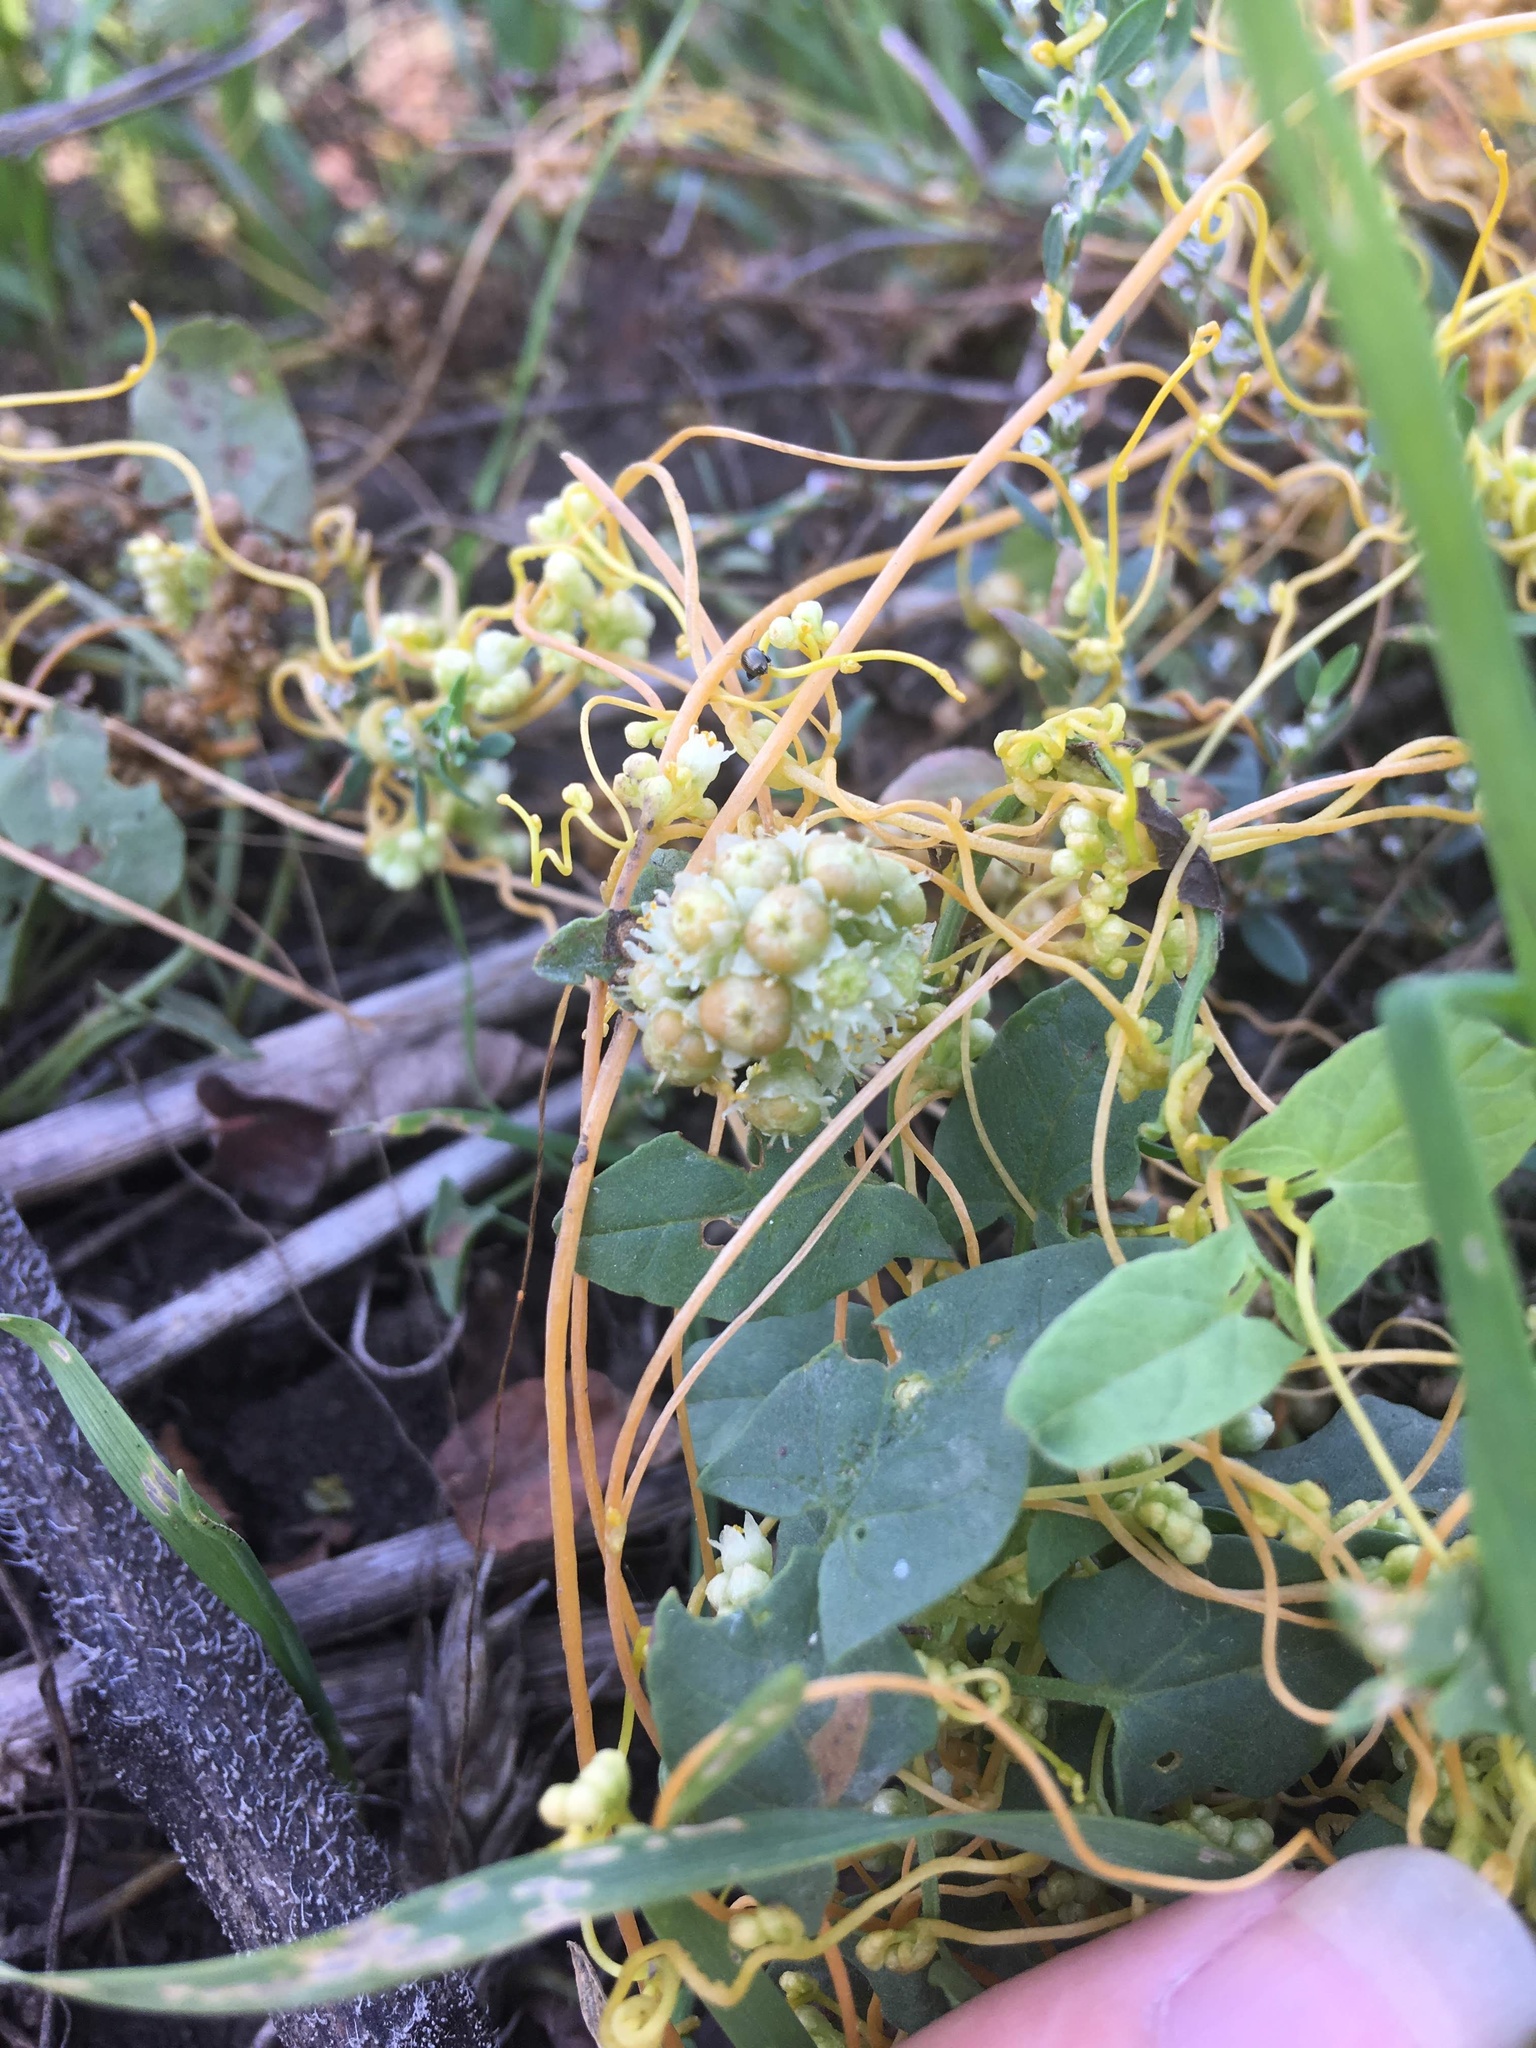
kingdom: Plantae
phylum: Tracheophyta
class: Magnoliopsida
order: Solanales
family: Convolvulaceae
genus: Cuscuta
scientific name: Cuscuta campestris
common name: Yellow dodder
